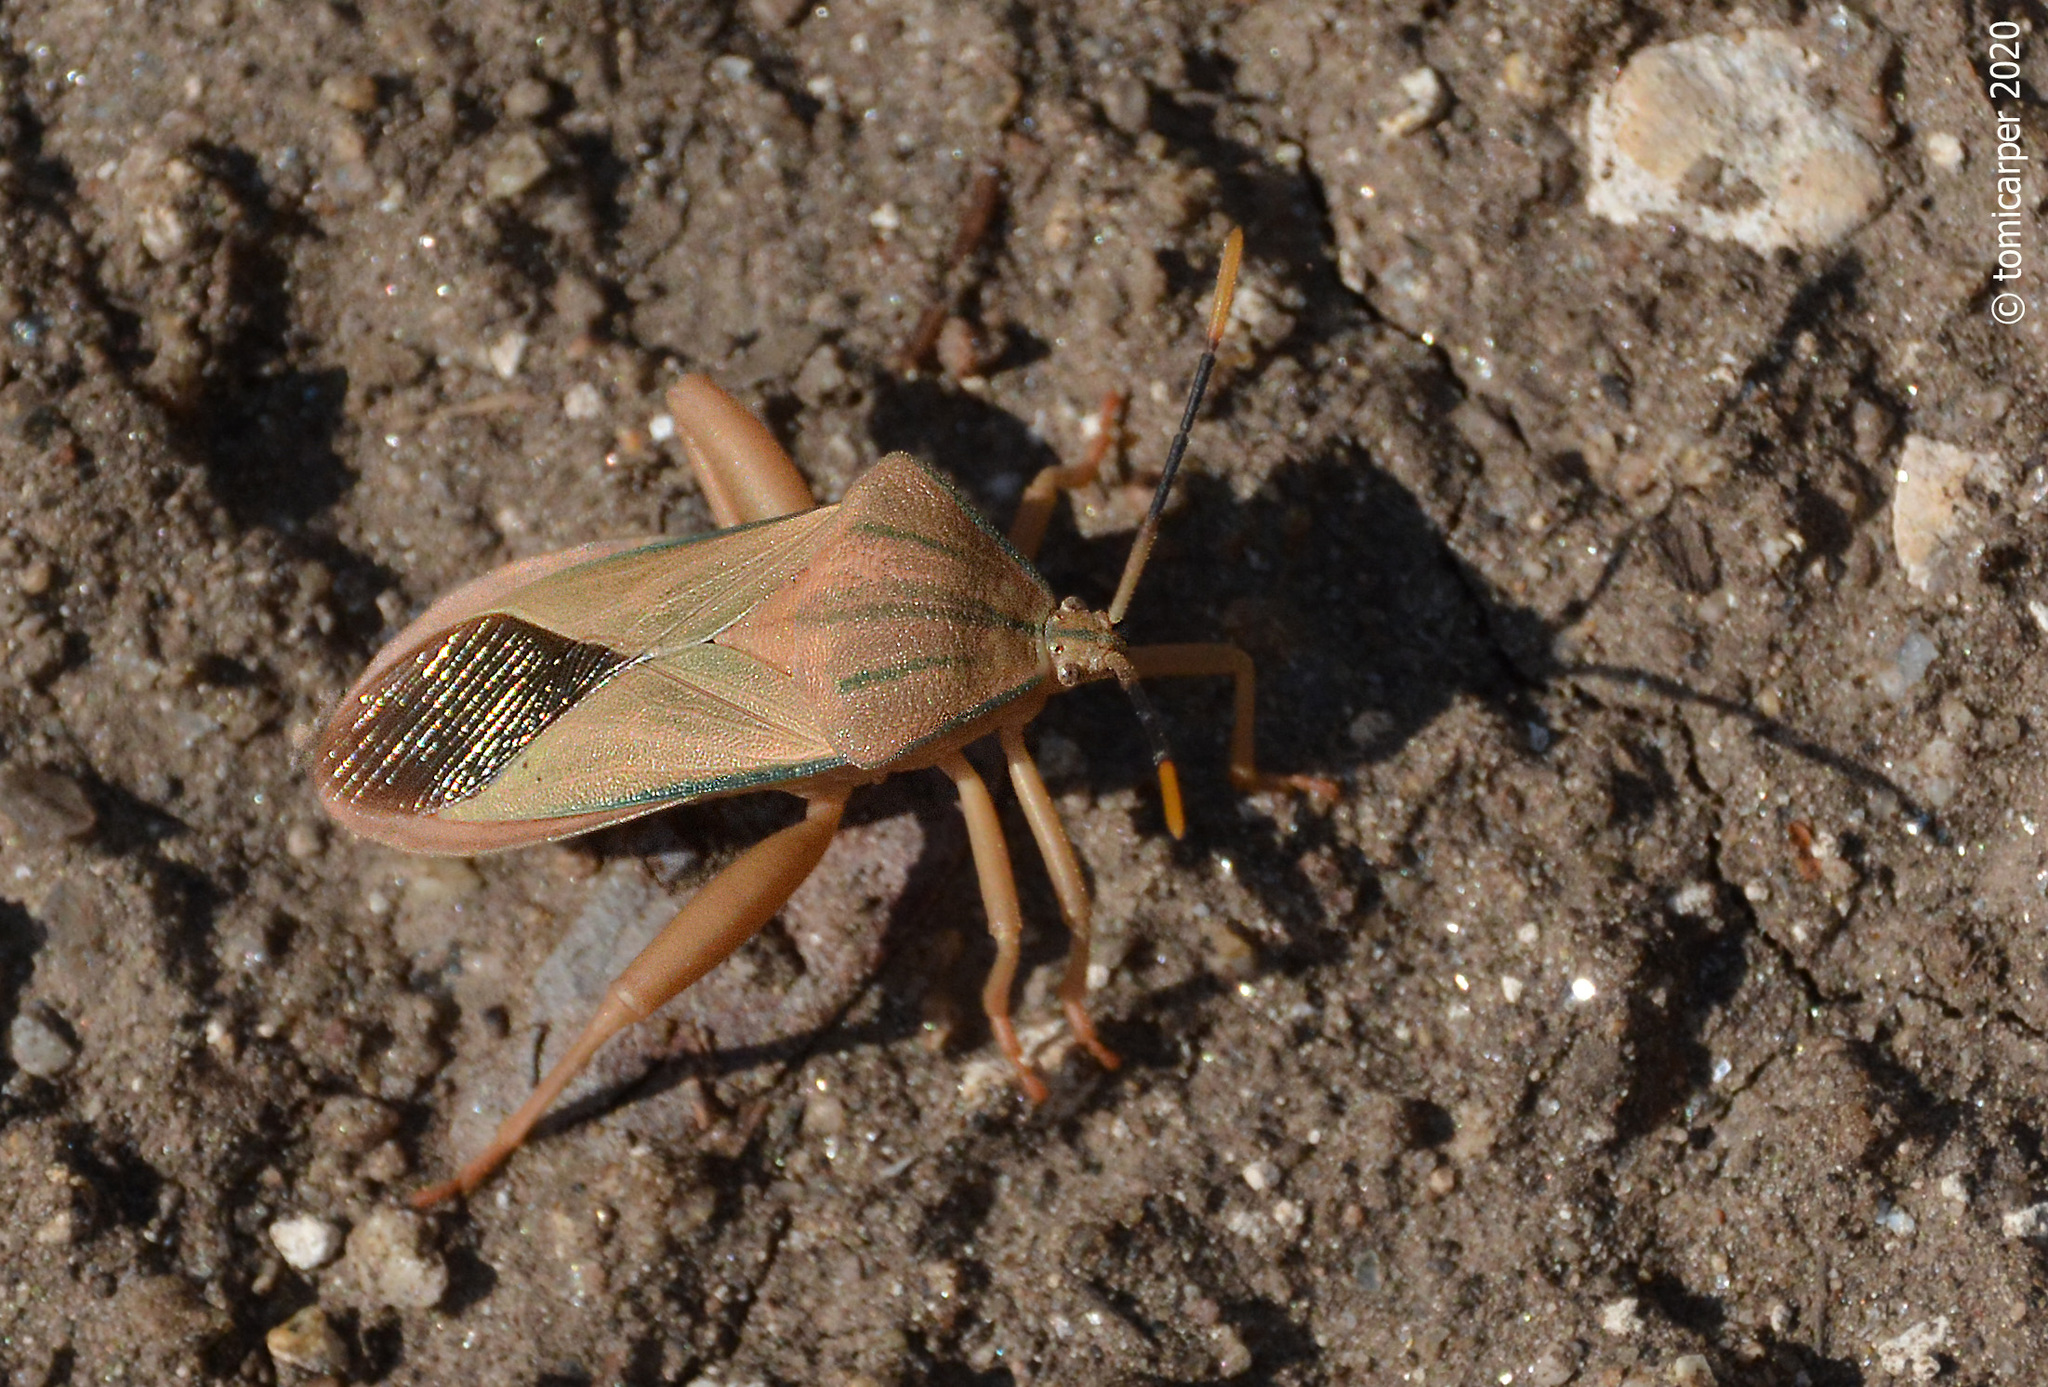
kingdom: Animalia
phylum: Arthropoda
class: Insecta
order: Hemiptera
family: Coreidae
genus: Cnemyrtus
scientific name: Cnemyrtus scriptus
